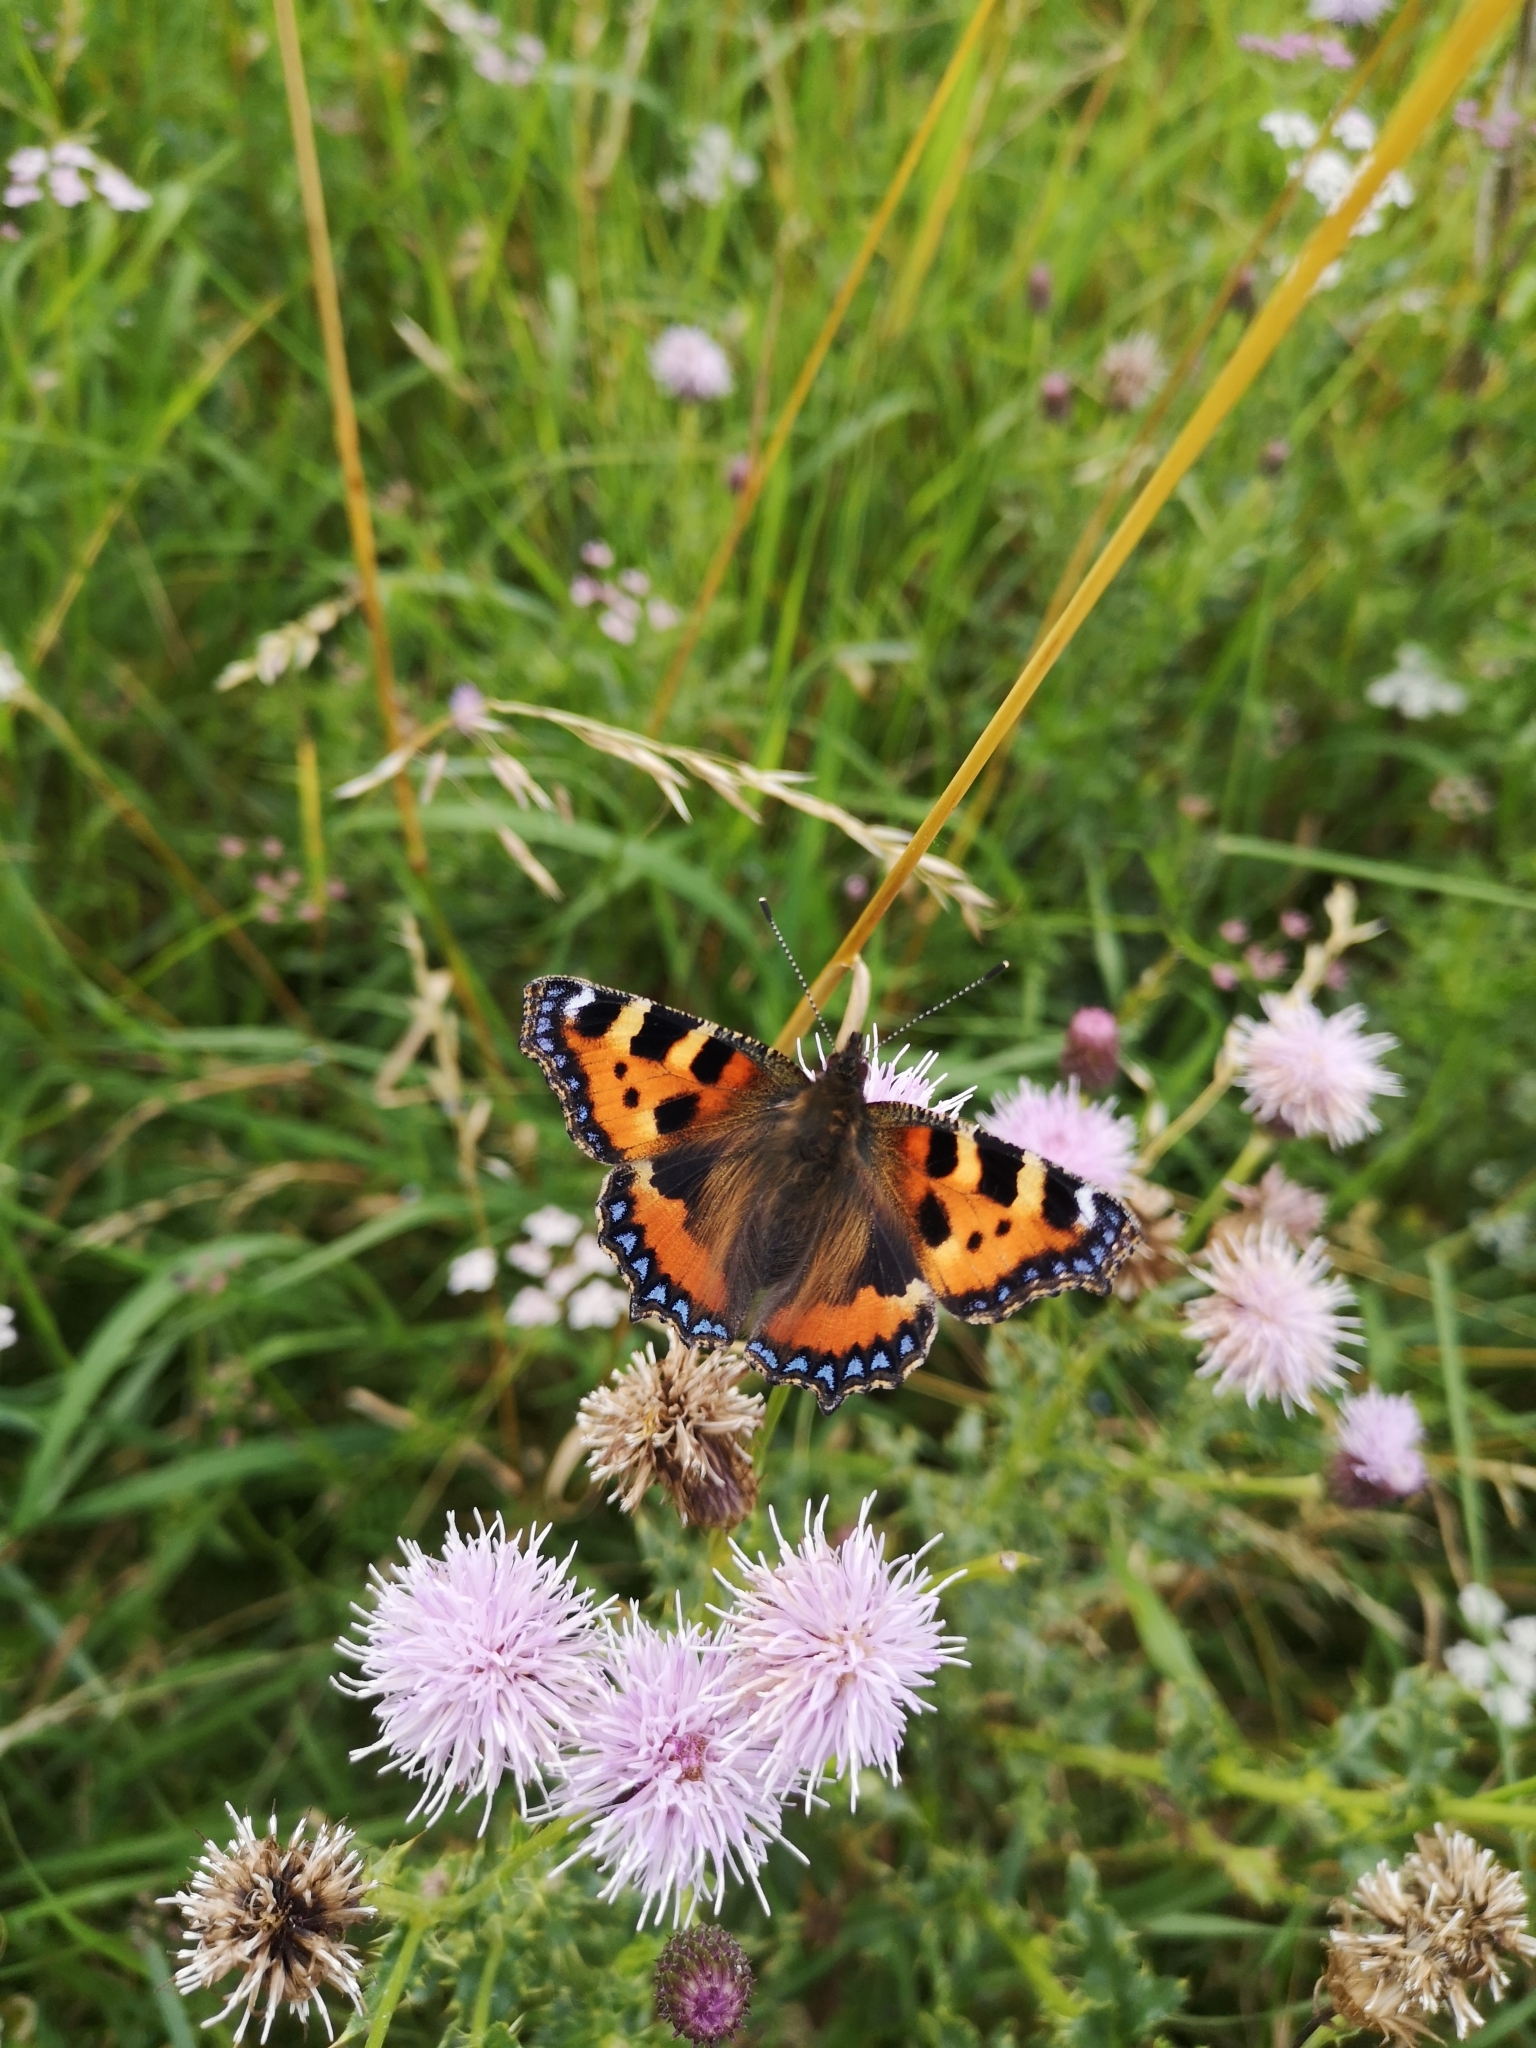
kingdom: Animalia
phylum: Arthropoda
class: Insecta
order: Lepidoptera
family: Nymphalidae
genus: Aglais
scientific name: Aglais urticae
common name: Small tortoiseshell
